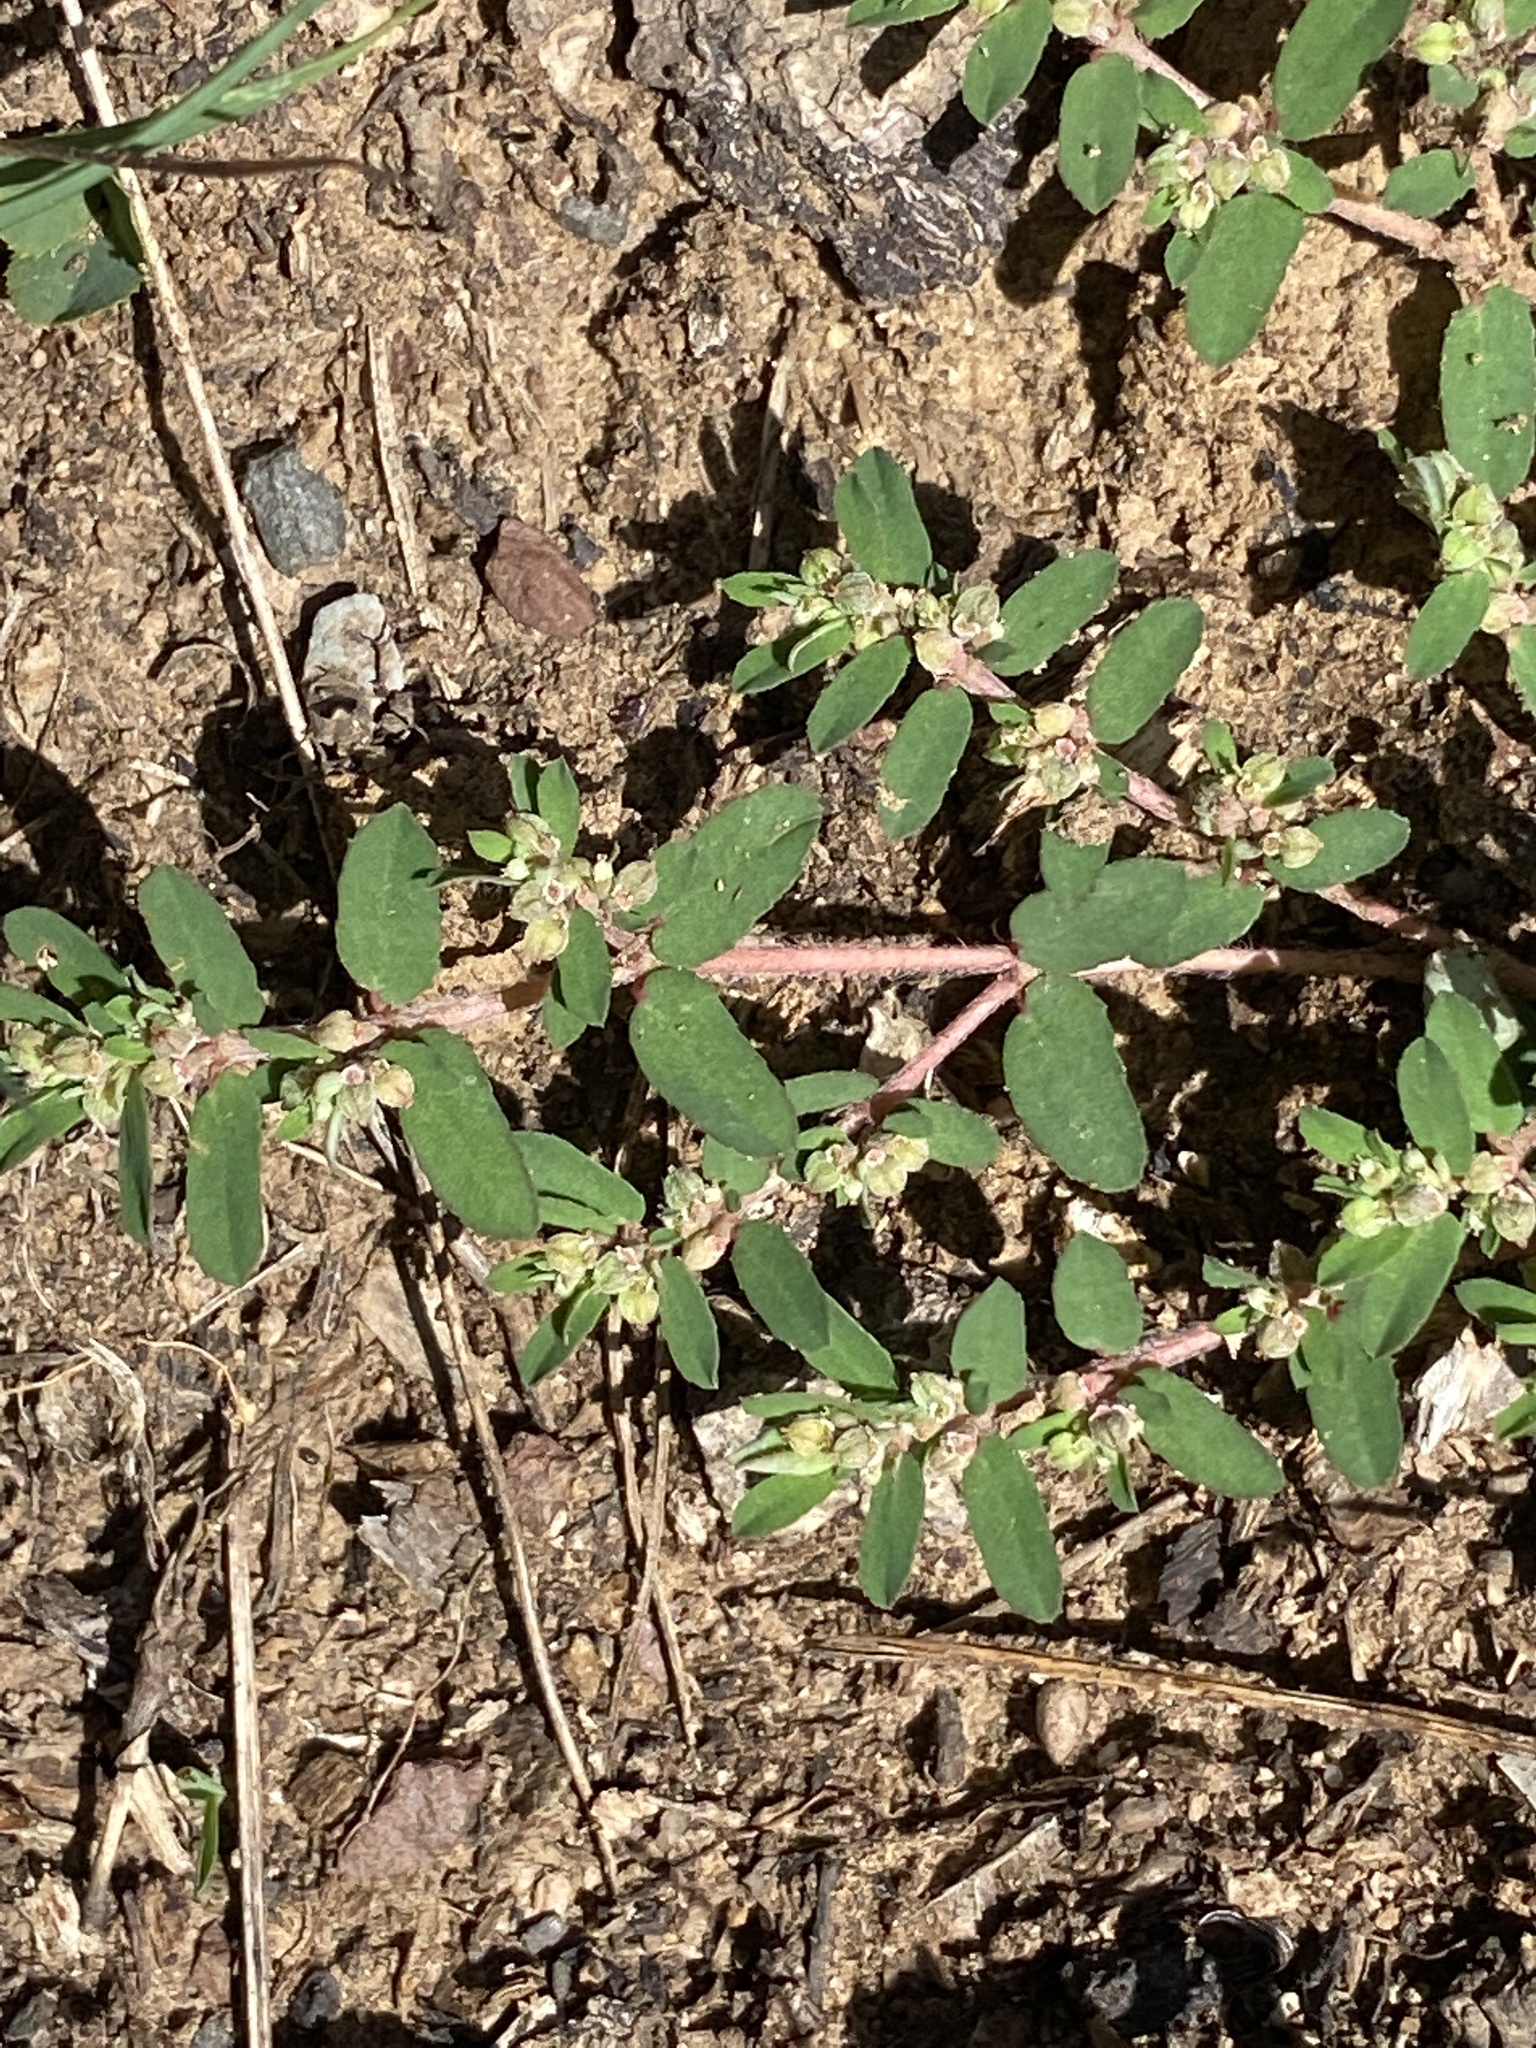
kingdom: Plantae
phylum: Tracheophyta
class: Magnoliopsida
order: Malpighiales
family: Euphorbiaceae
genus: Euphorbia
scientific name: Euphorbia maculata
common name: Spotted spurge
